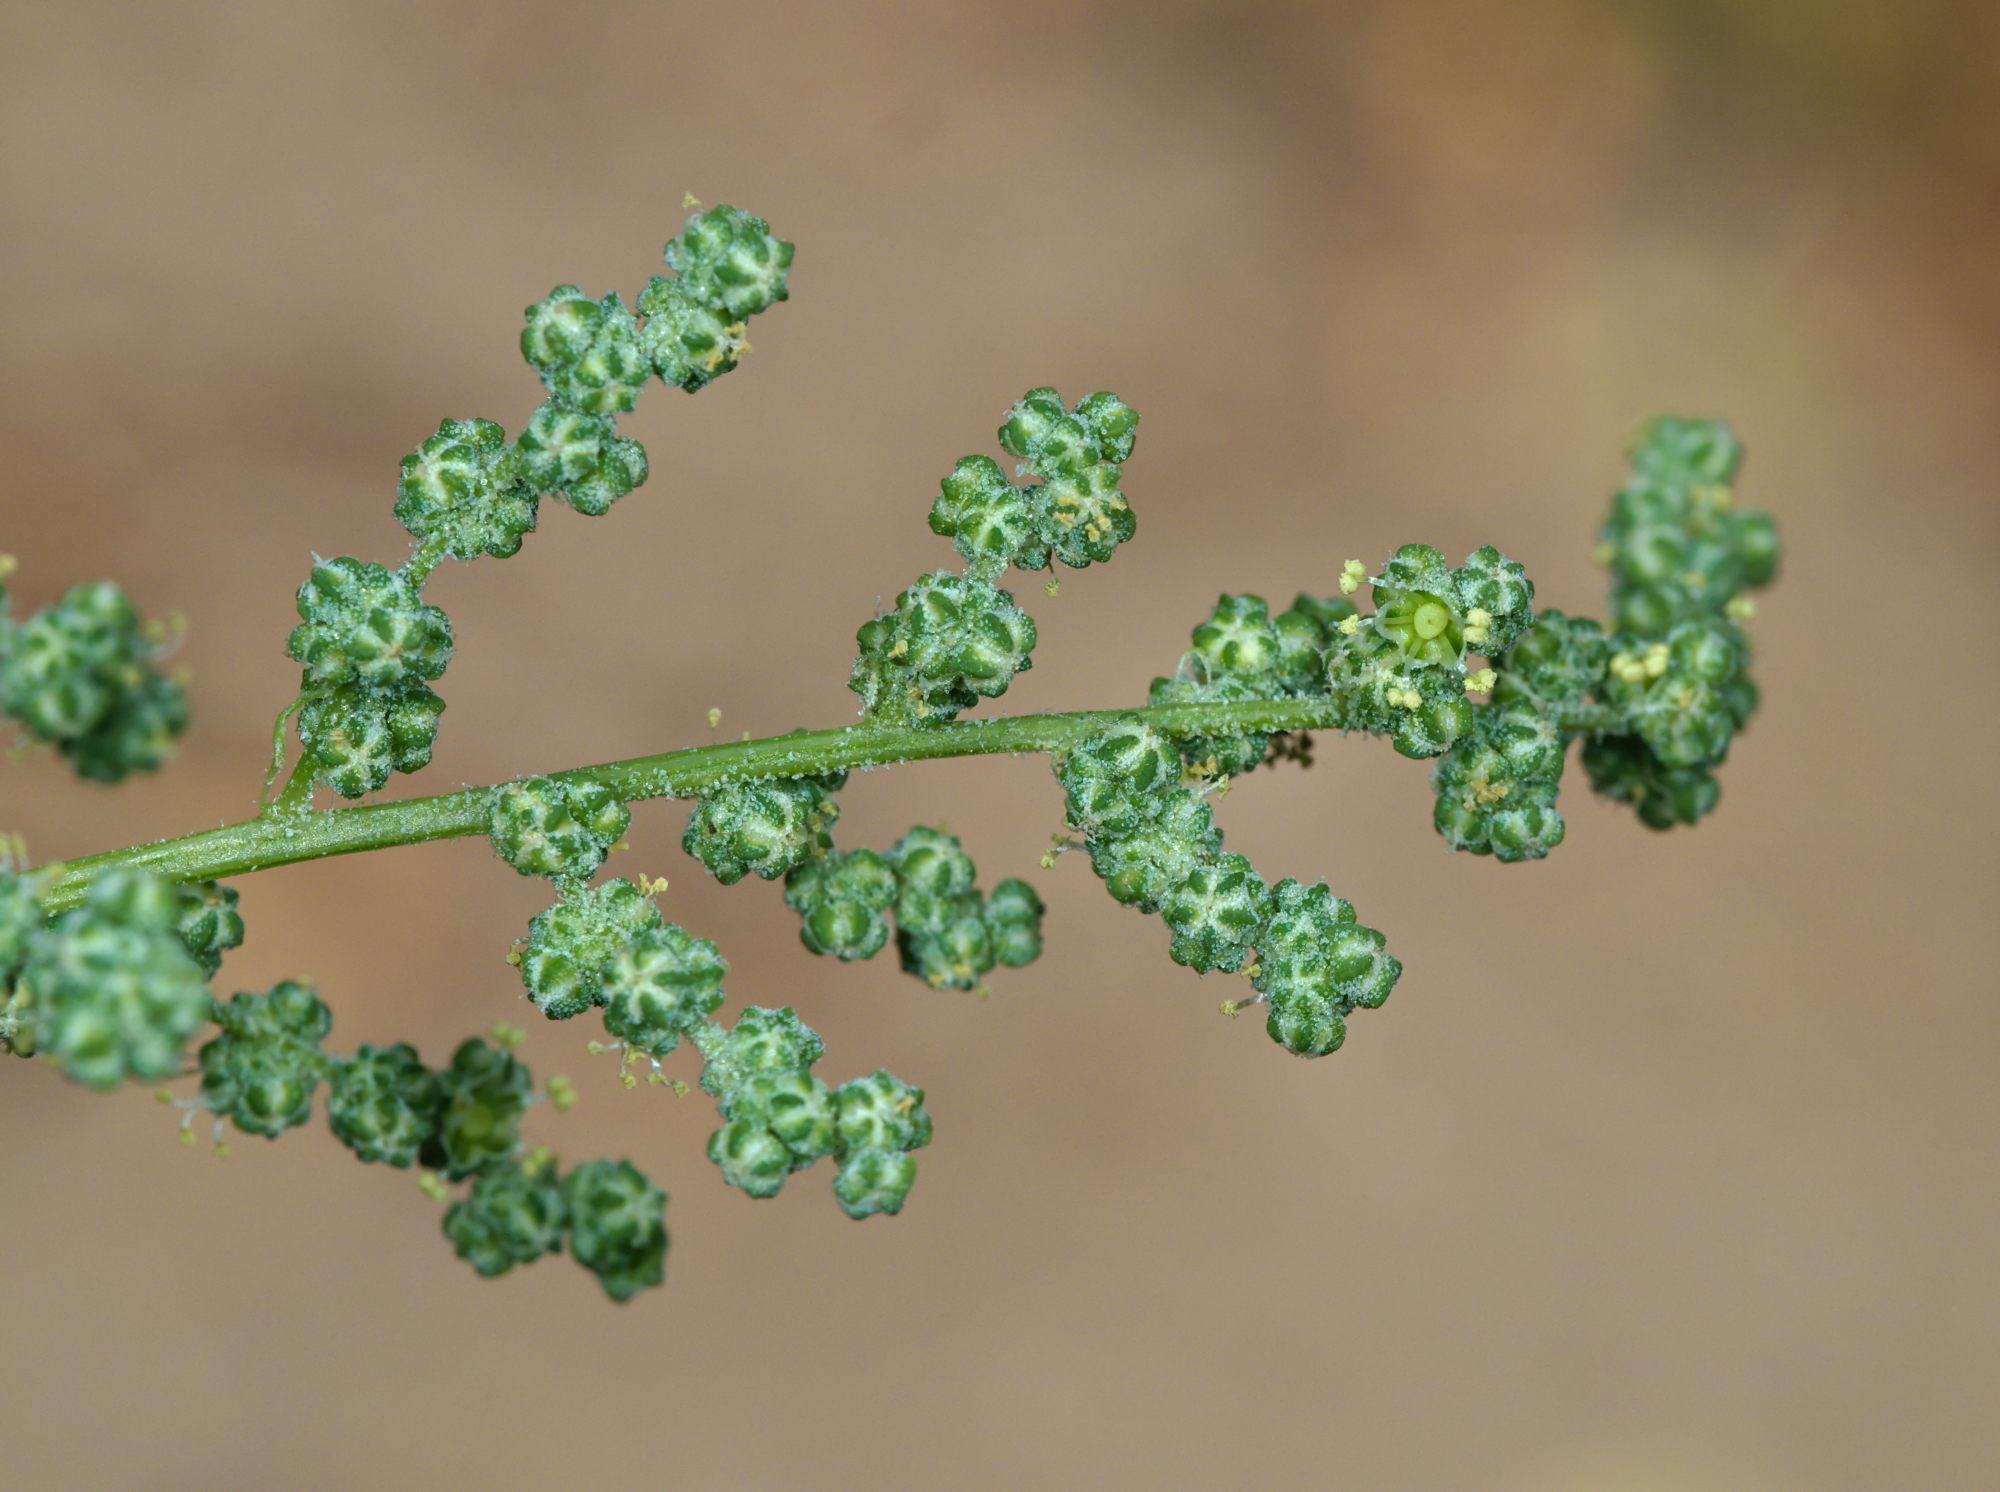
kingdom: Plantae
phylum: Tracheophyta
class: Magnoliopsida
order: Caryophyllales
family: Amaranthaceae
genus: Chenopodium
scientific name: Chenopodium album
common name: Fat-hen
